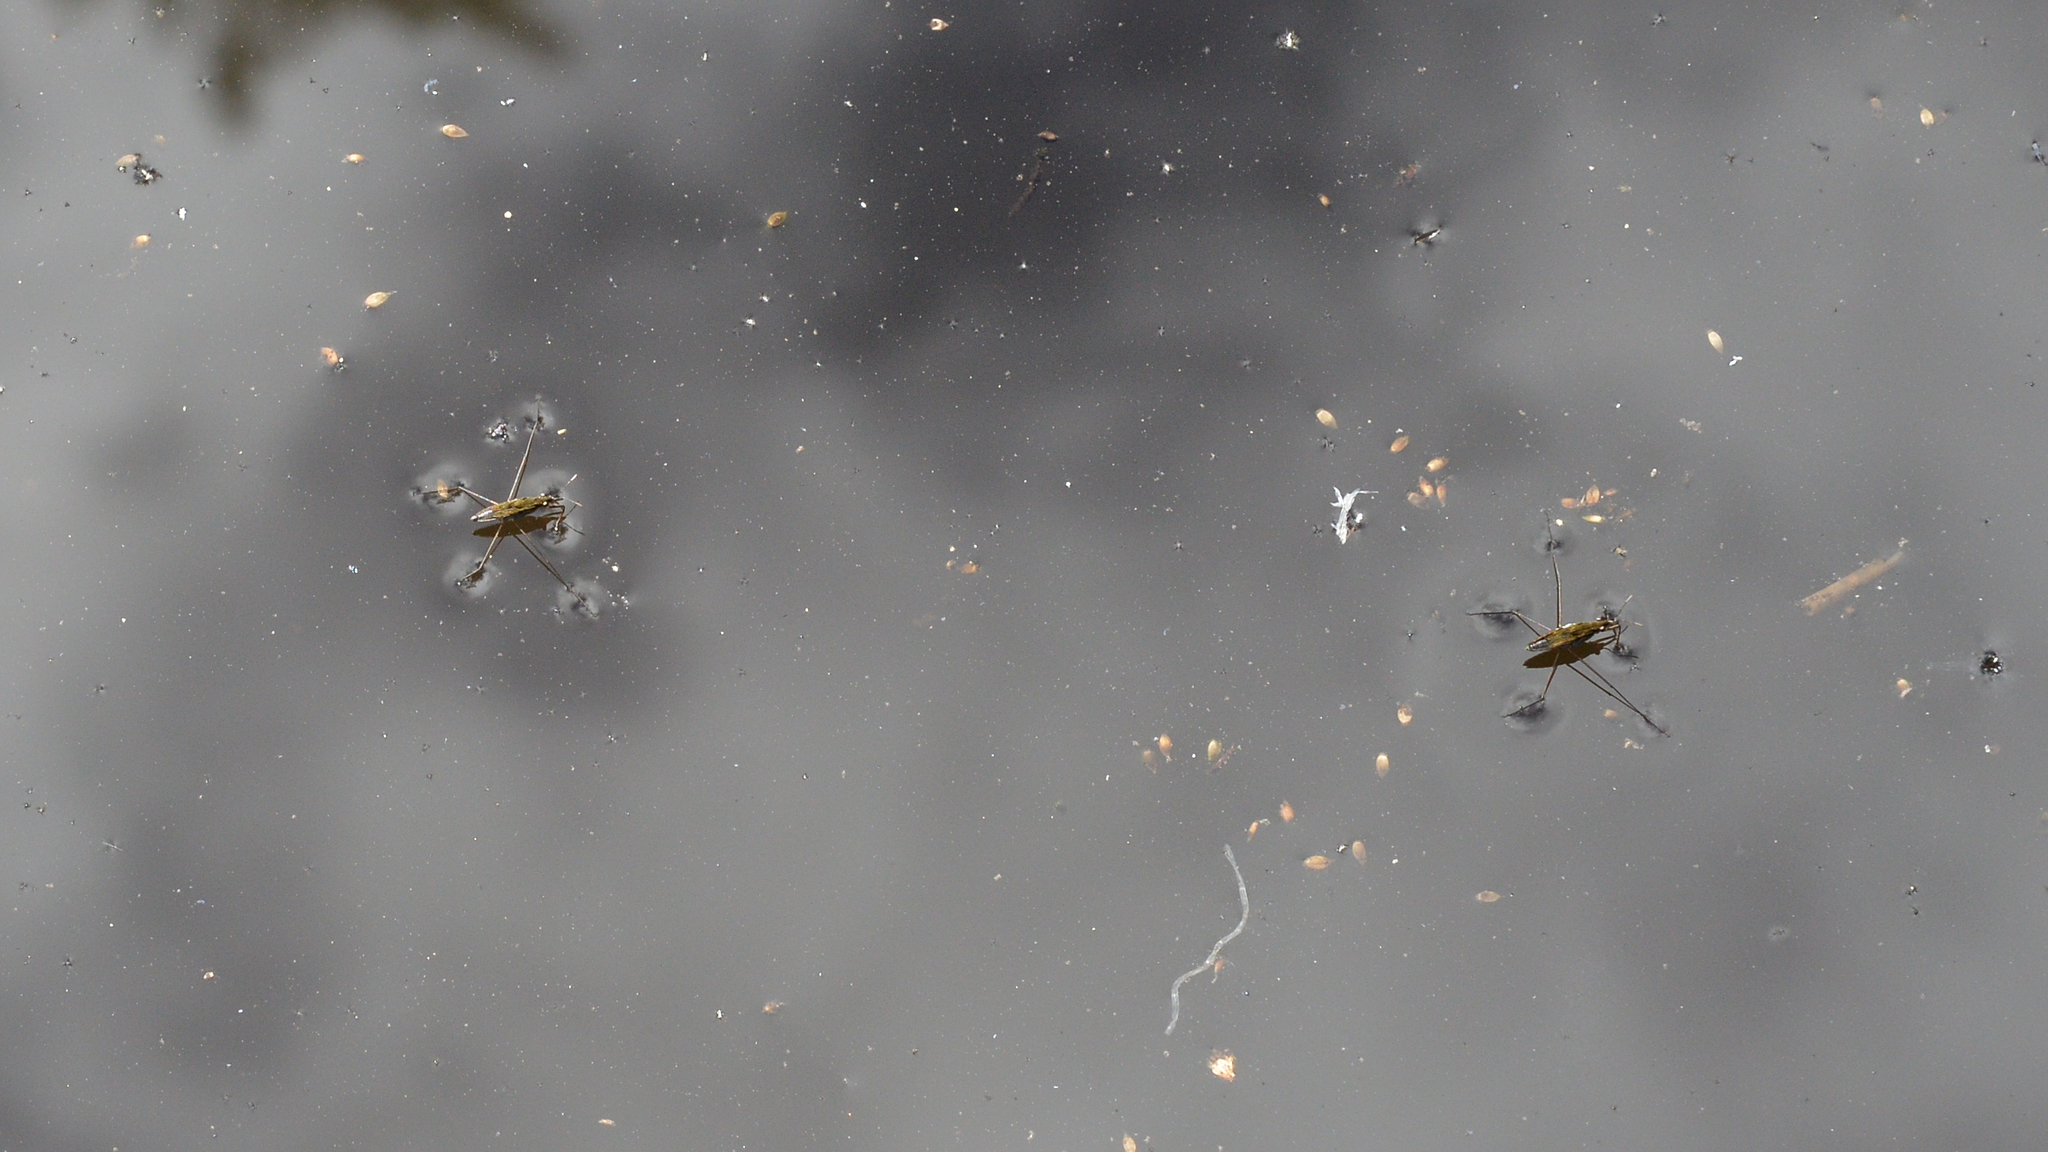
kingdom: Animalia
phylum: Arthropoda
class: Insecta
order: Hemiptera
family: Gerridae
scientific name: Gerridae
